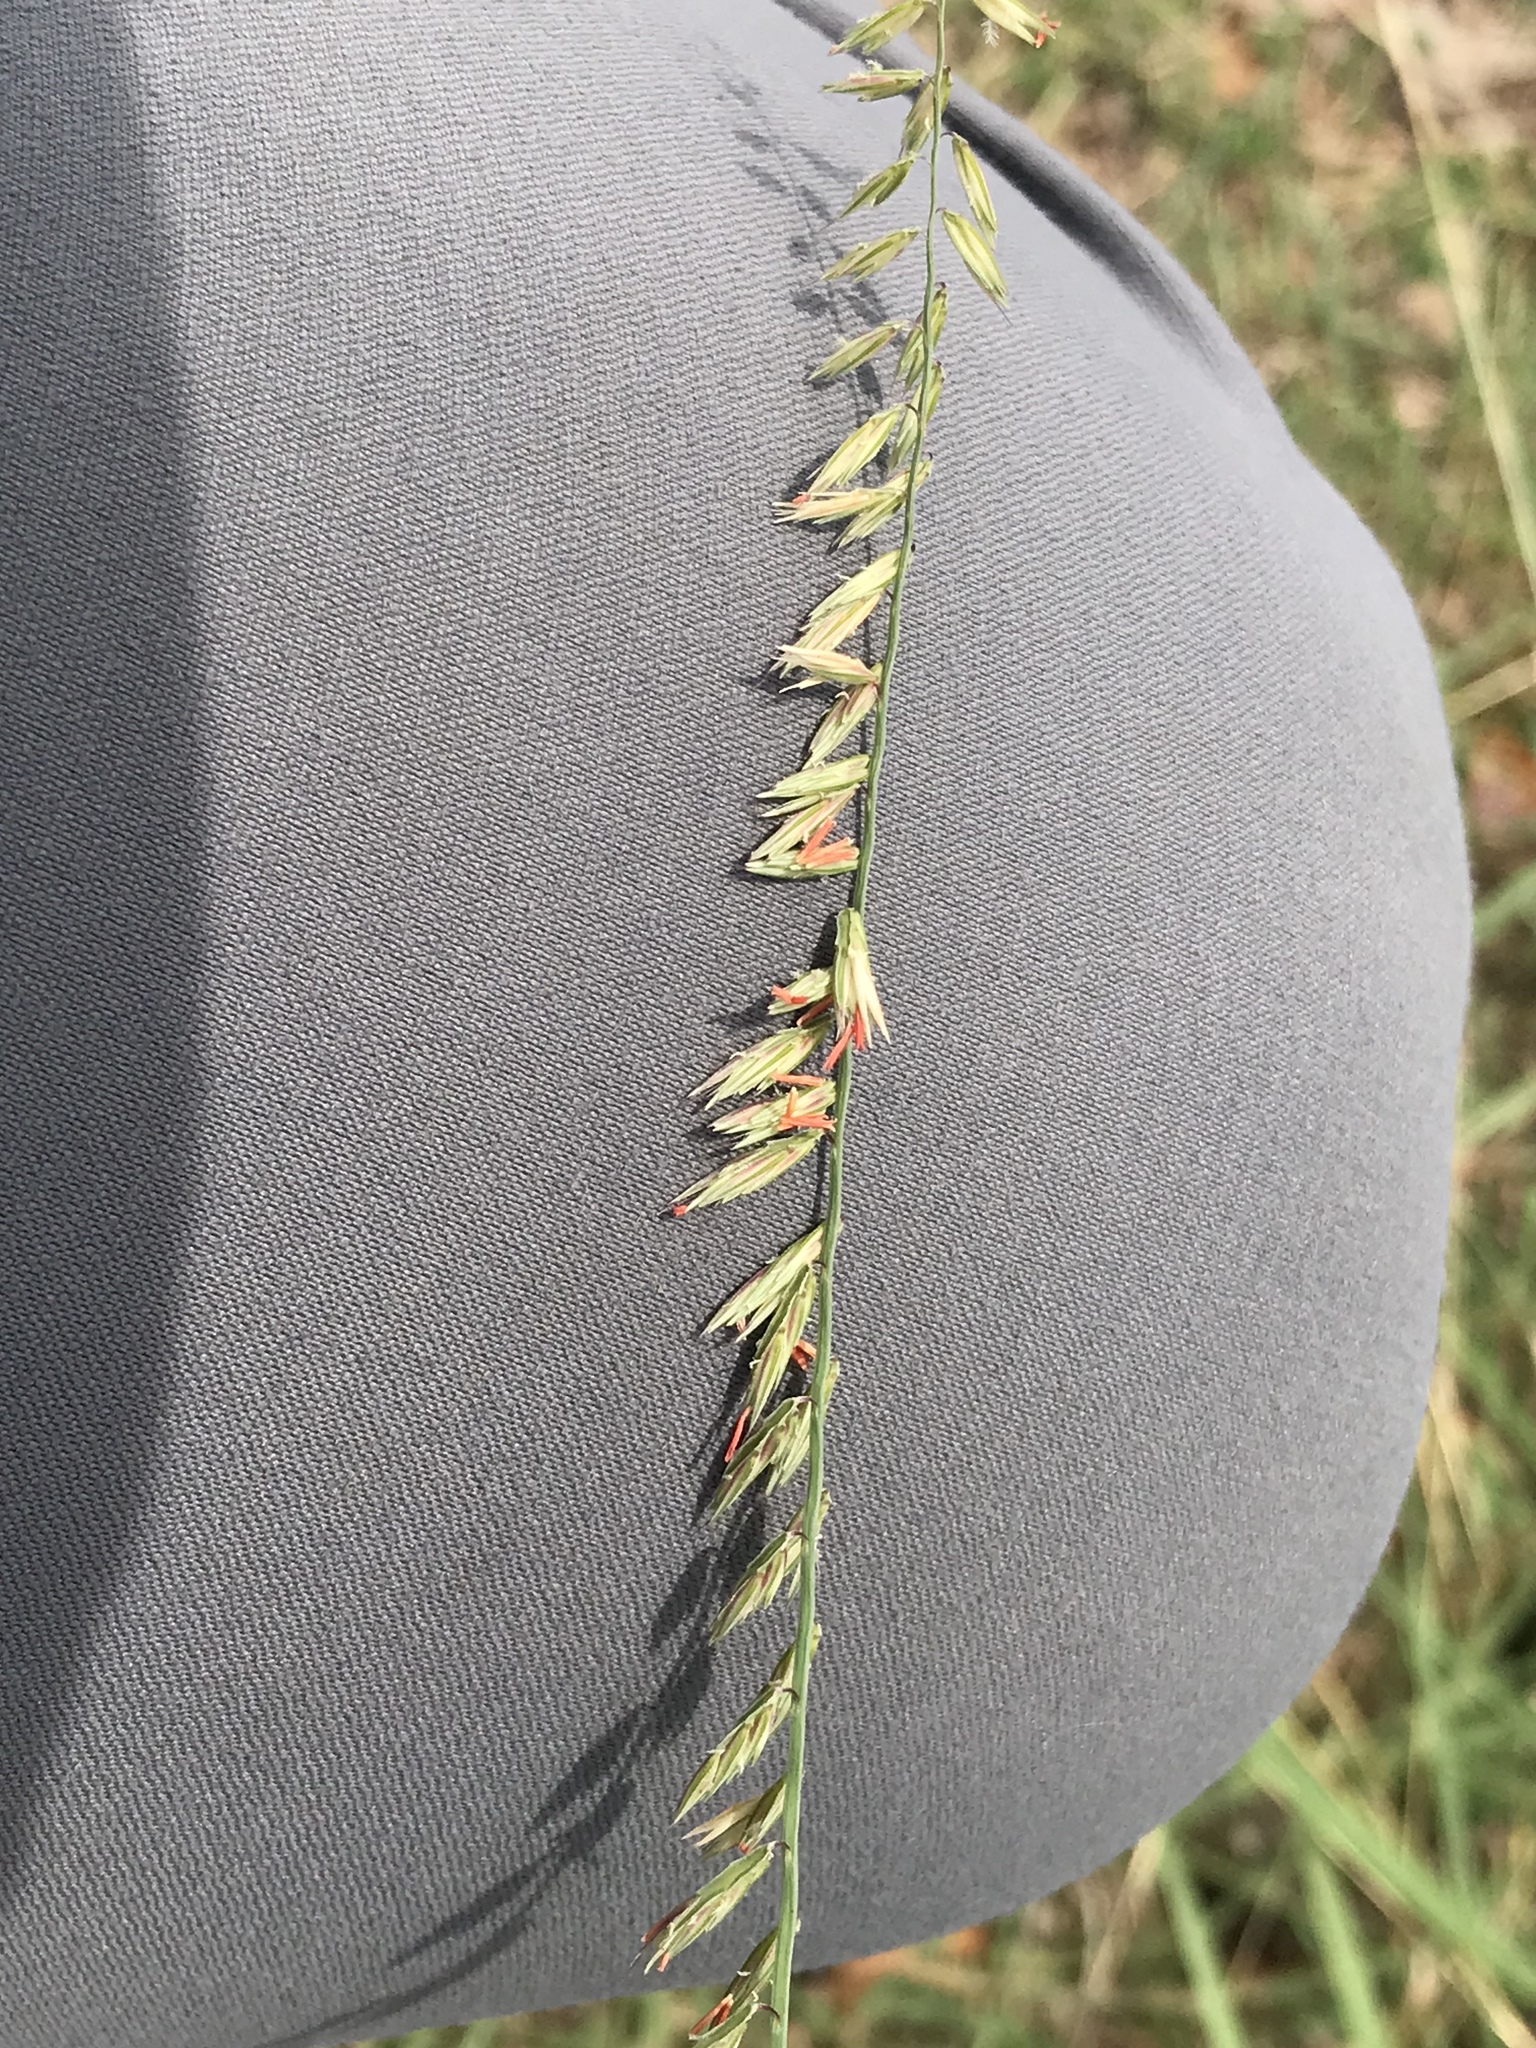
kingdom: Plantae
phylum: Tracheophyta
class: Liliopsida
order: Poales
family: Poaceae
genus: Bouteloua
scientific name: Bouteloua curtipendula
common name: Side-oats grama
